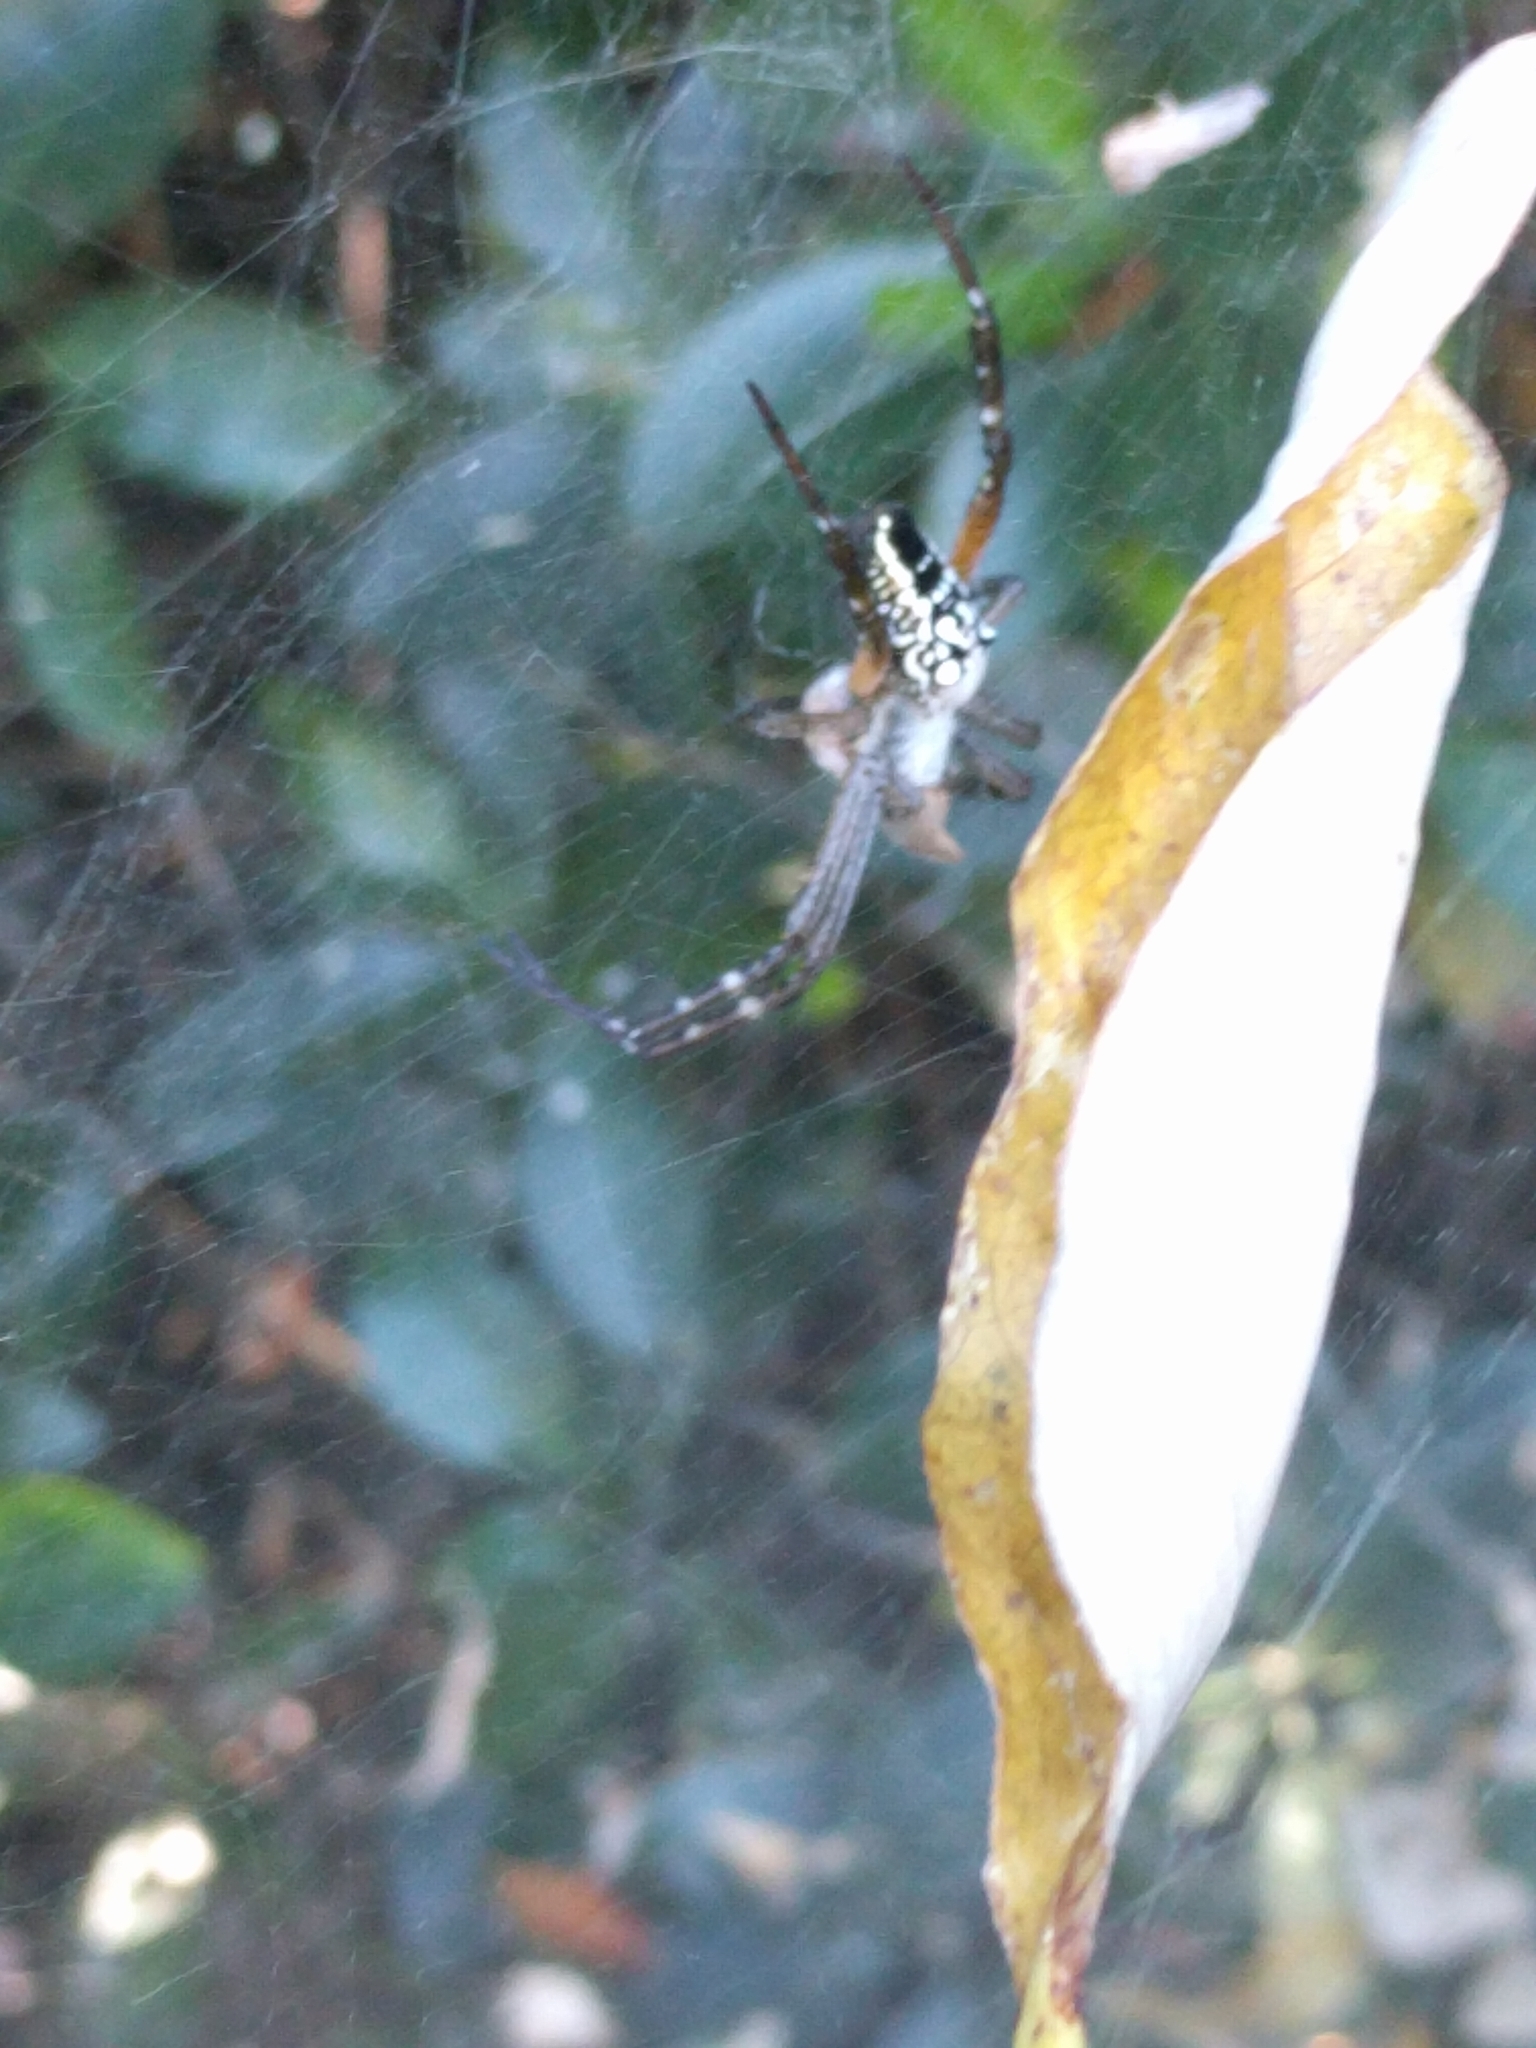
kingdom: Chromista
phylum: Ochrophyta
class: Dictyochophyceae
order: Pedinellales
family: Cyrtophoraceae
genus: Cyrtophora
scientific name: Cyrtophora moluccensis
